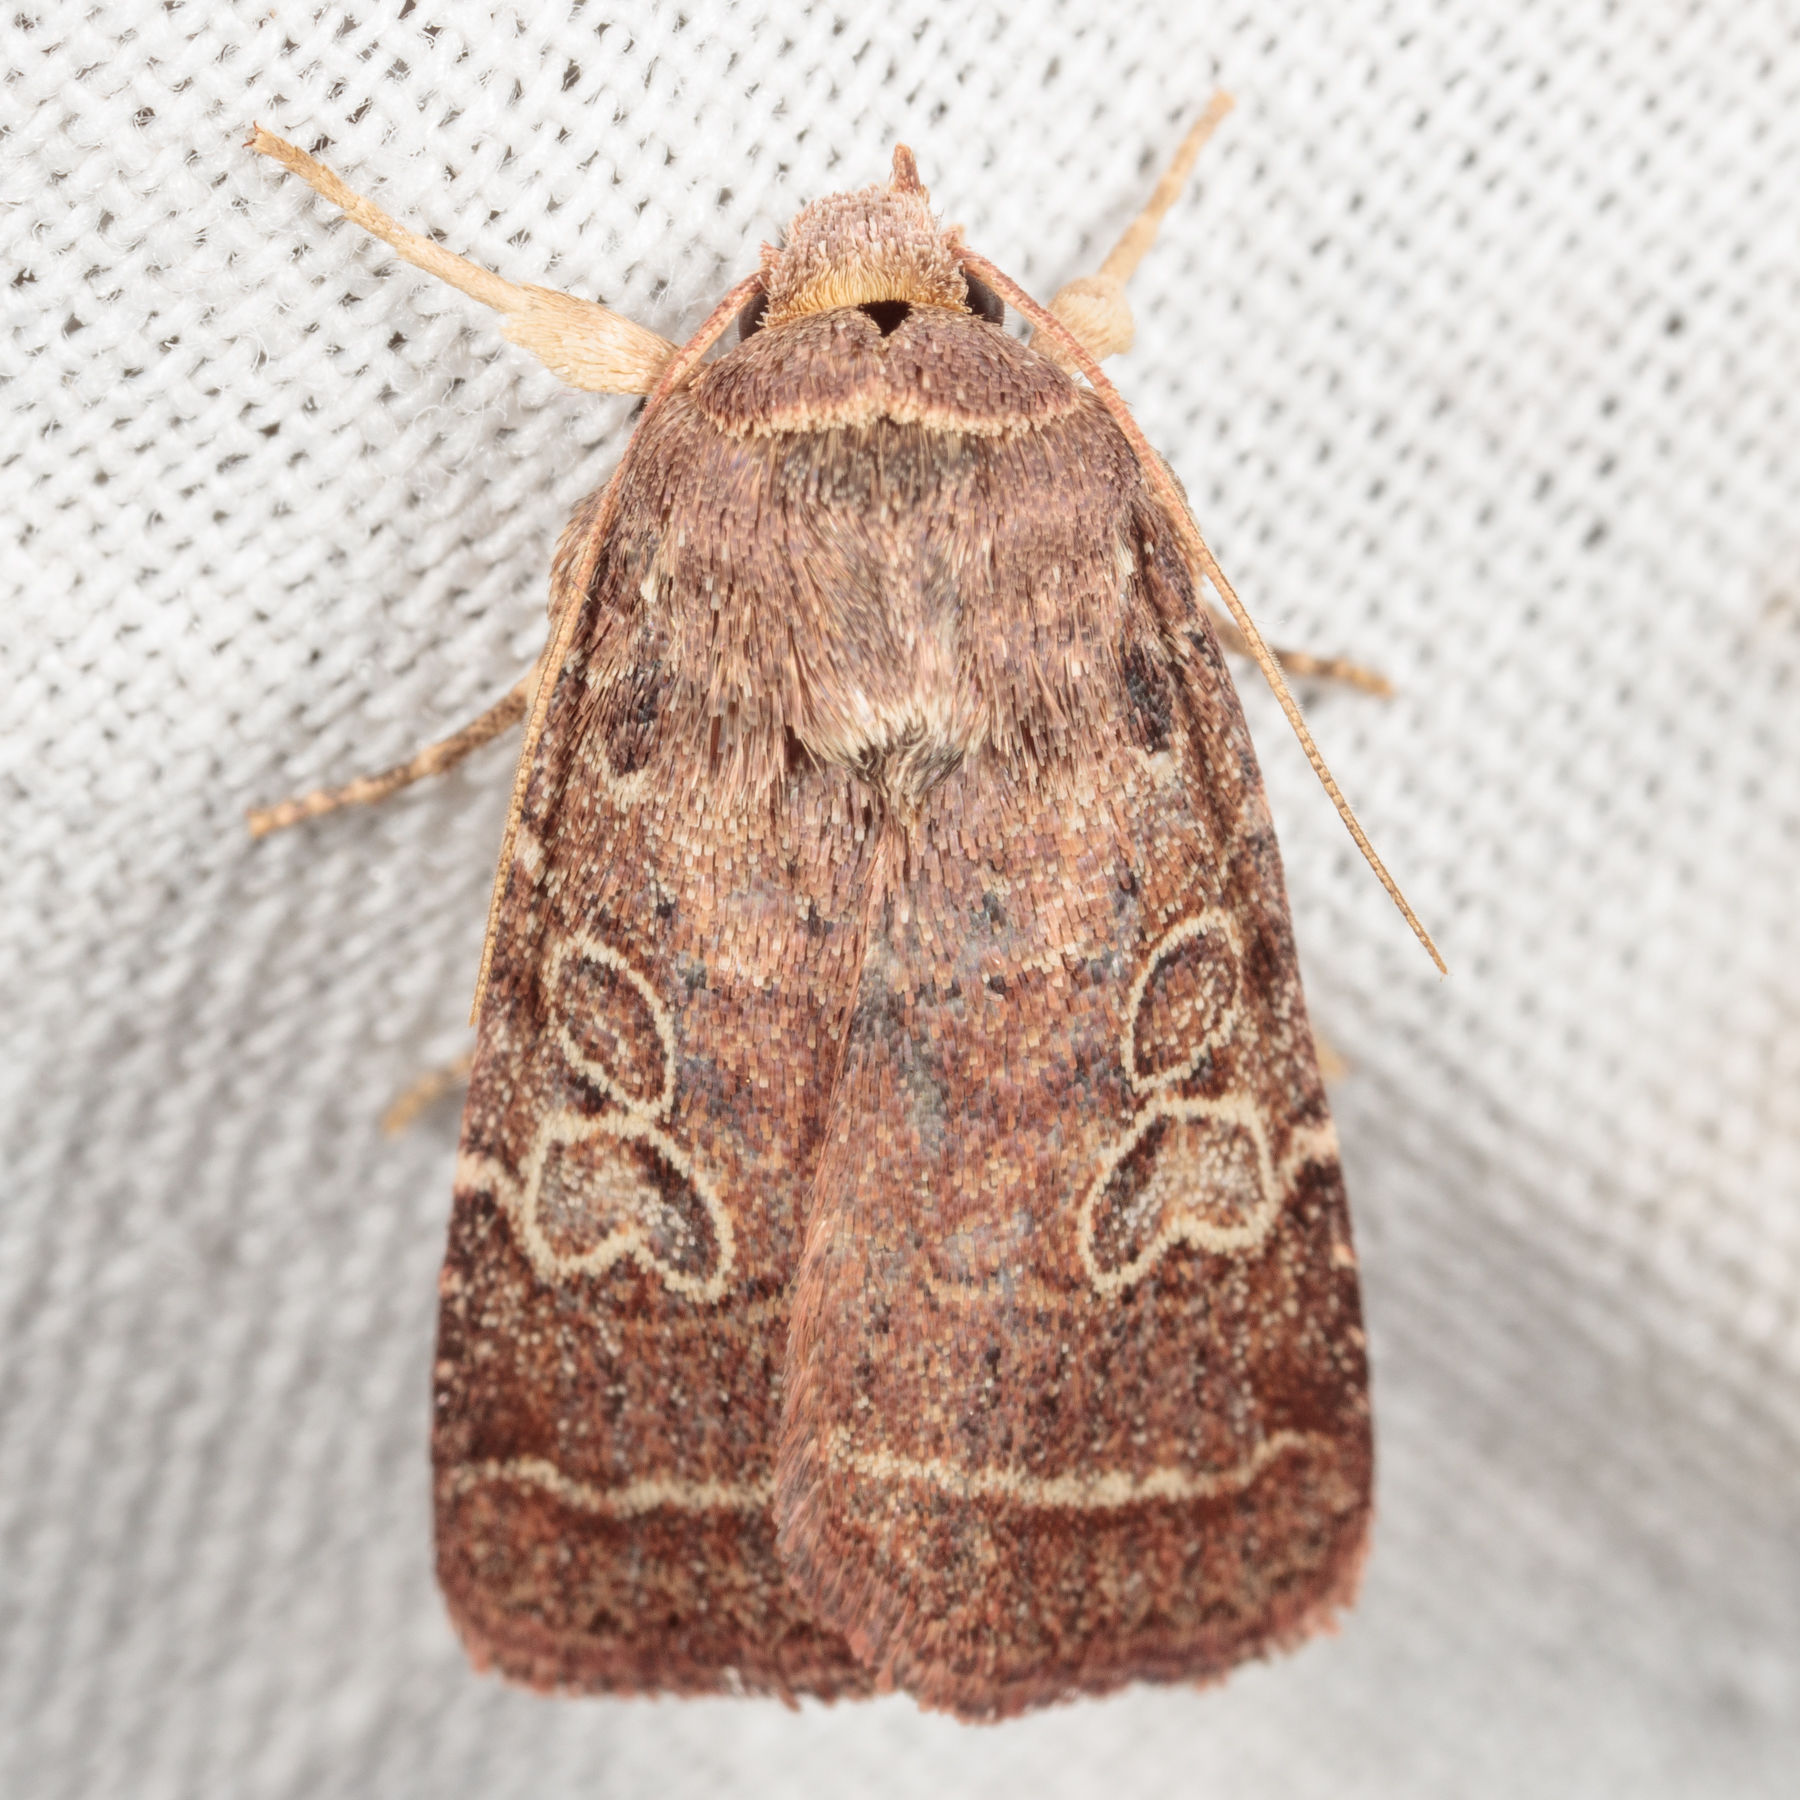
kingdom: Animalia
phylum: Arthropoda
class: Insecta
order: Lepidoptera
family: Noctuidae
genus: Orthodes
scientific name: Orthodes furtiva
